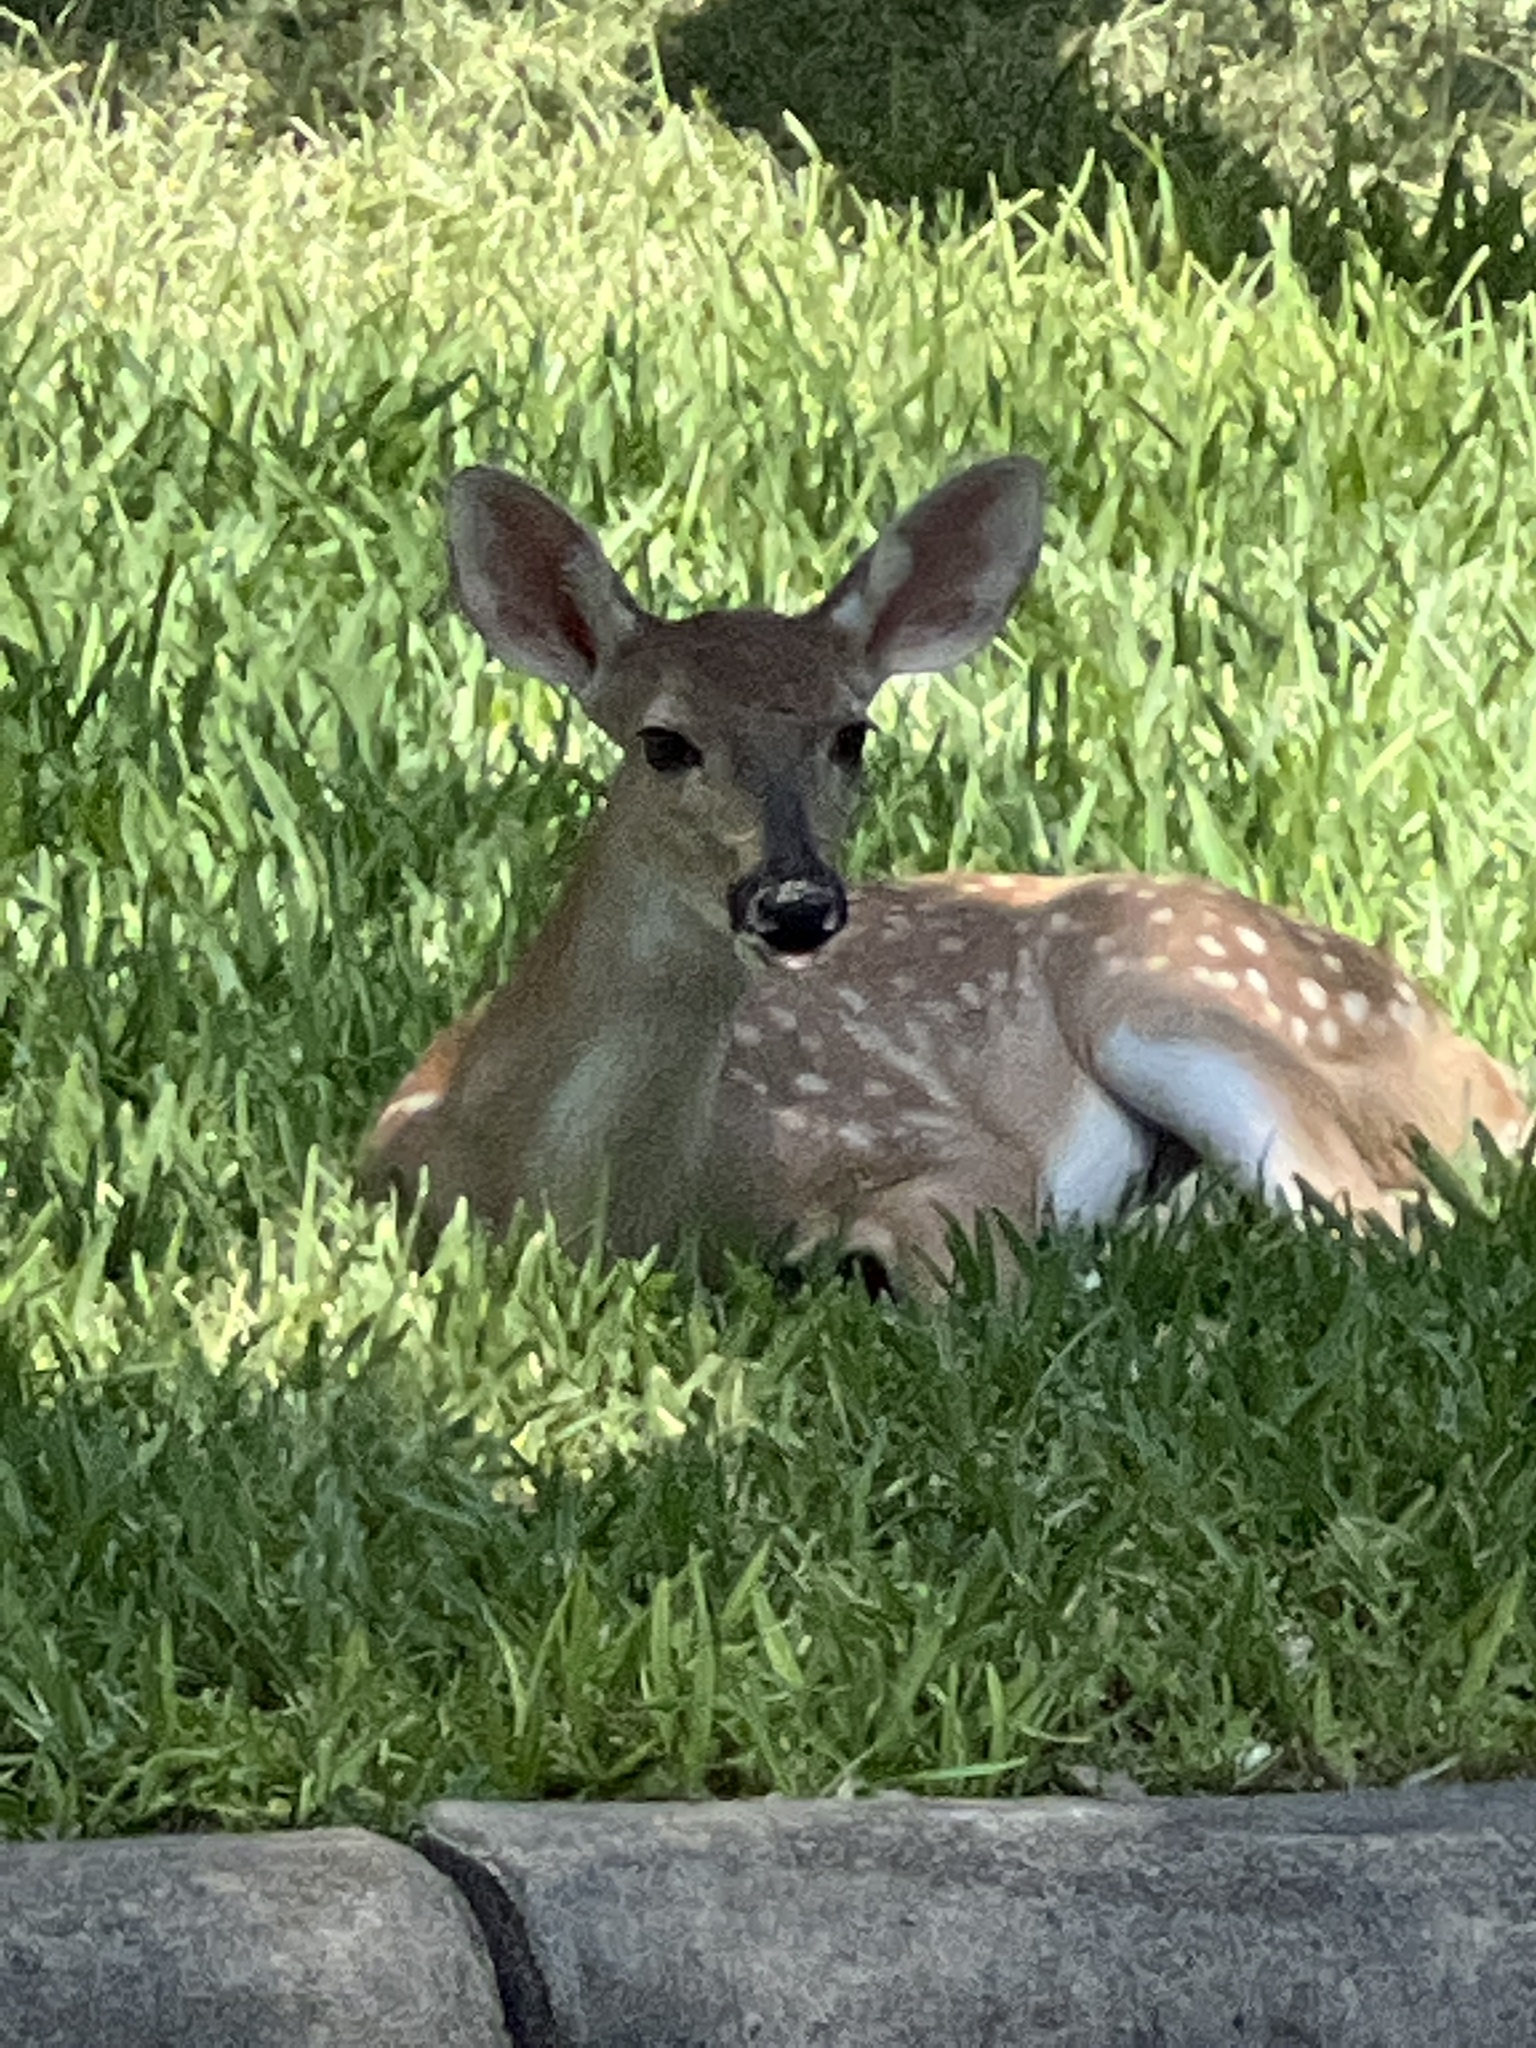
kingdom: Animalia
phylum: Chordata
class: Mammalia
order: Artiodactyla
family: Cervidae
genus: Odocoileus
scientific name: Odocoileus virginianus
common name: White-tailed deer
